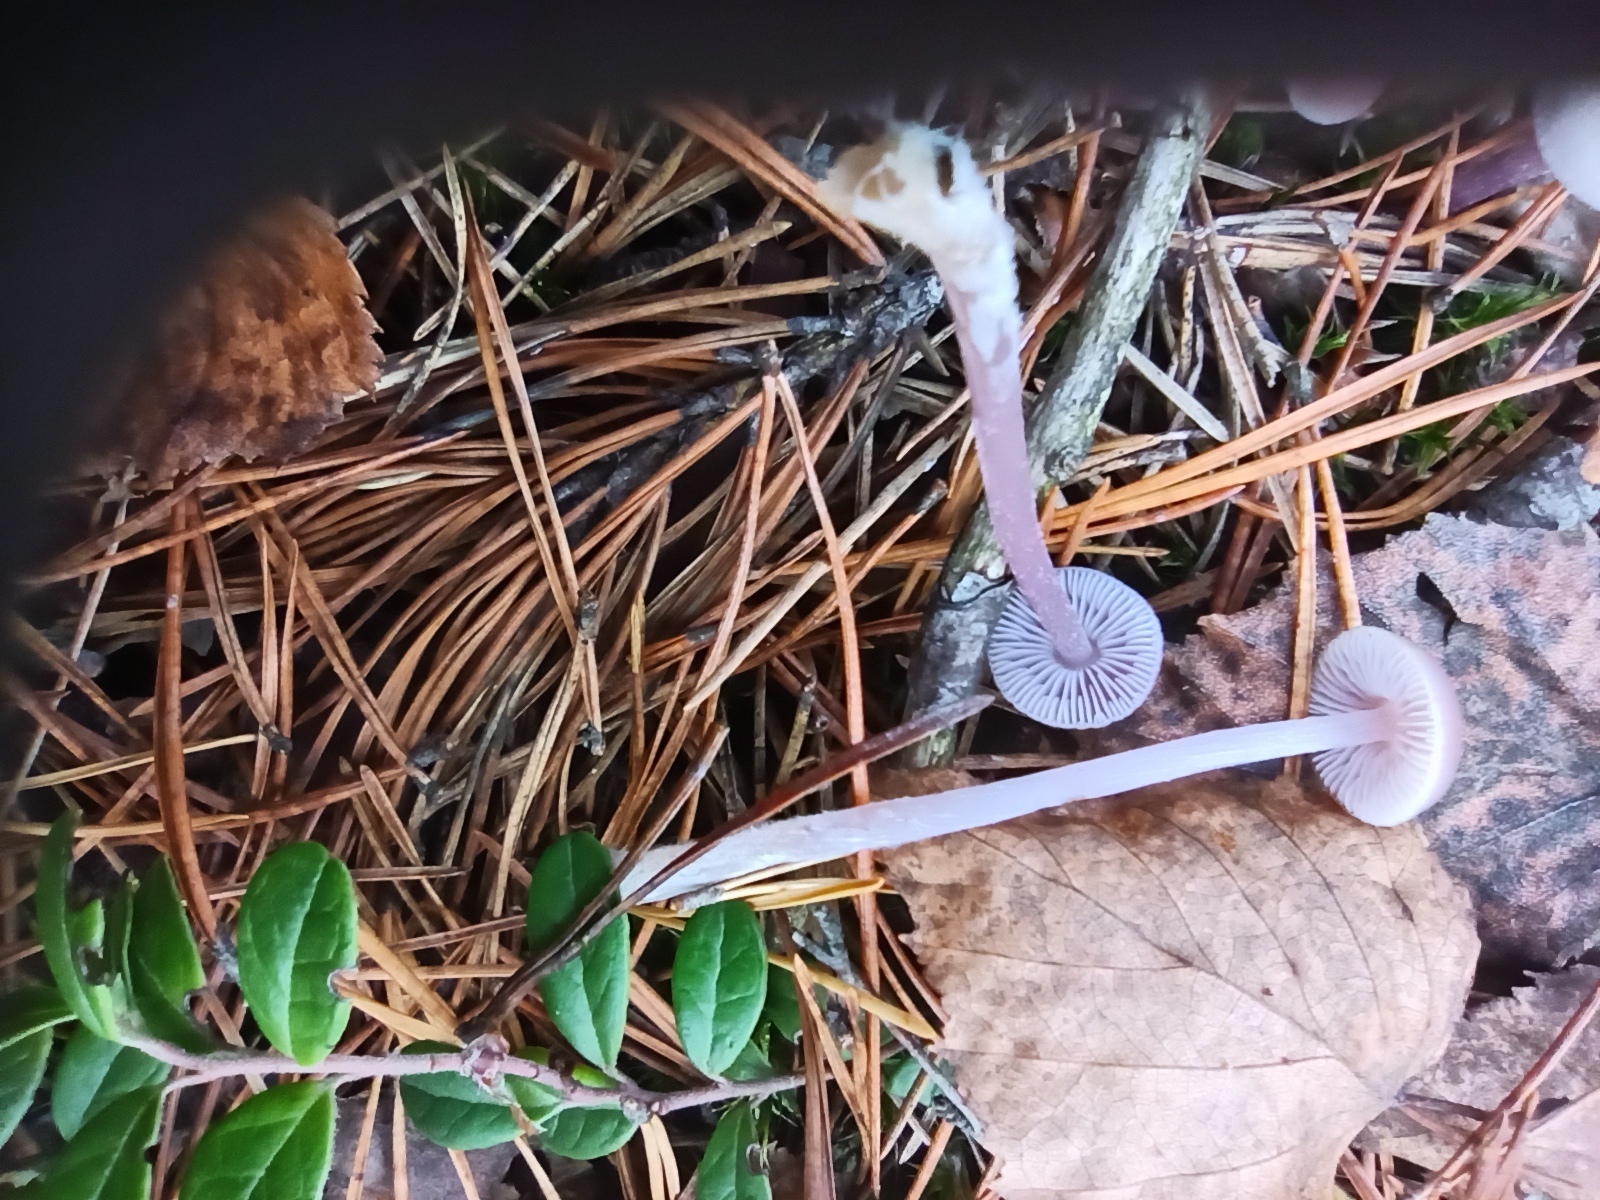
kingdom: Fungi
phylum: Basidiomycota
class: Agaricomycetes
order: Agaricales
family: Mycenaceae
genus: Mycena
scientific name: Mycena pura
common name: Lilac bonnet
